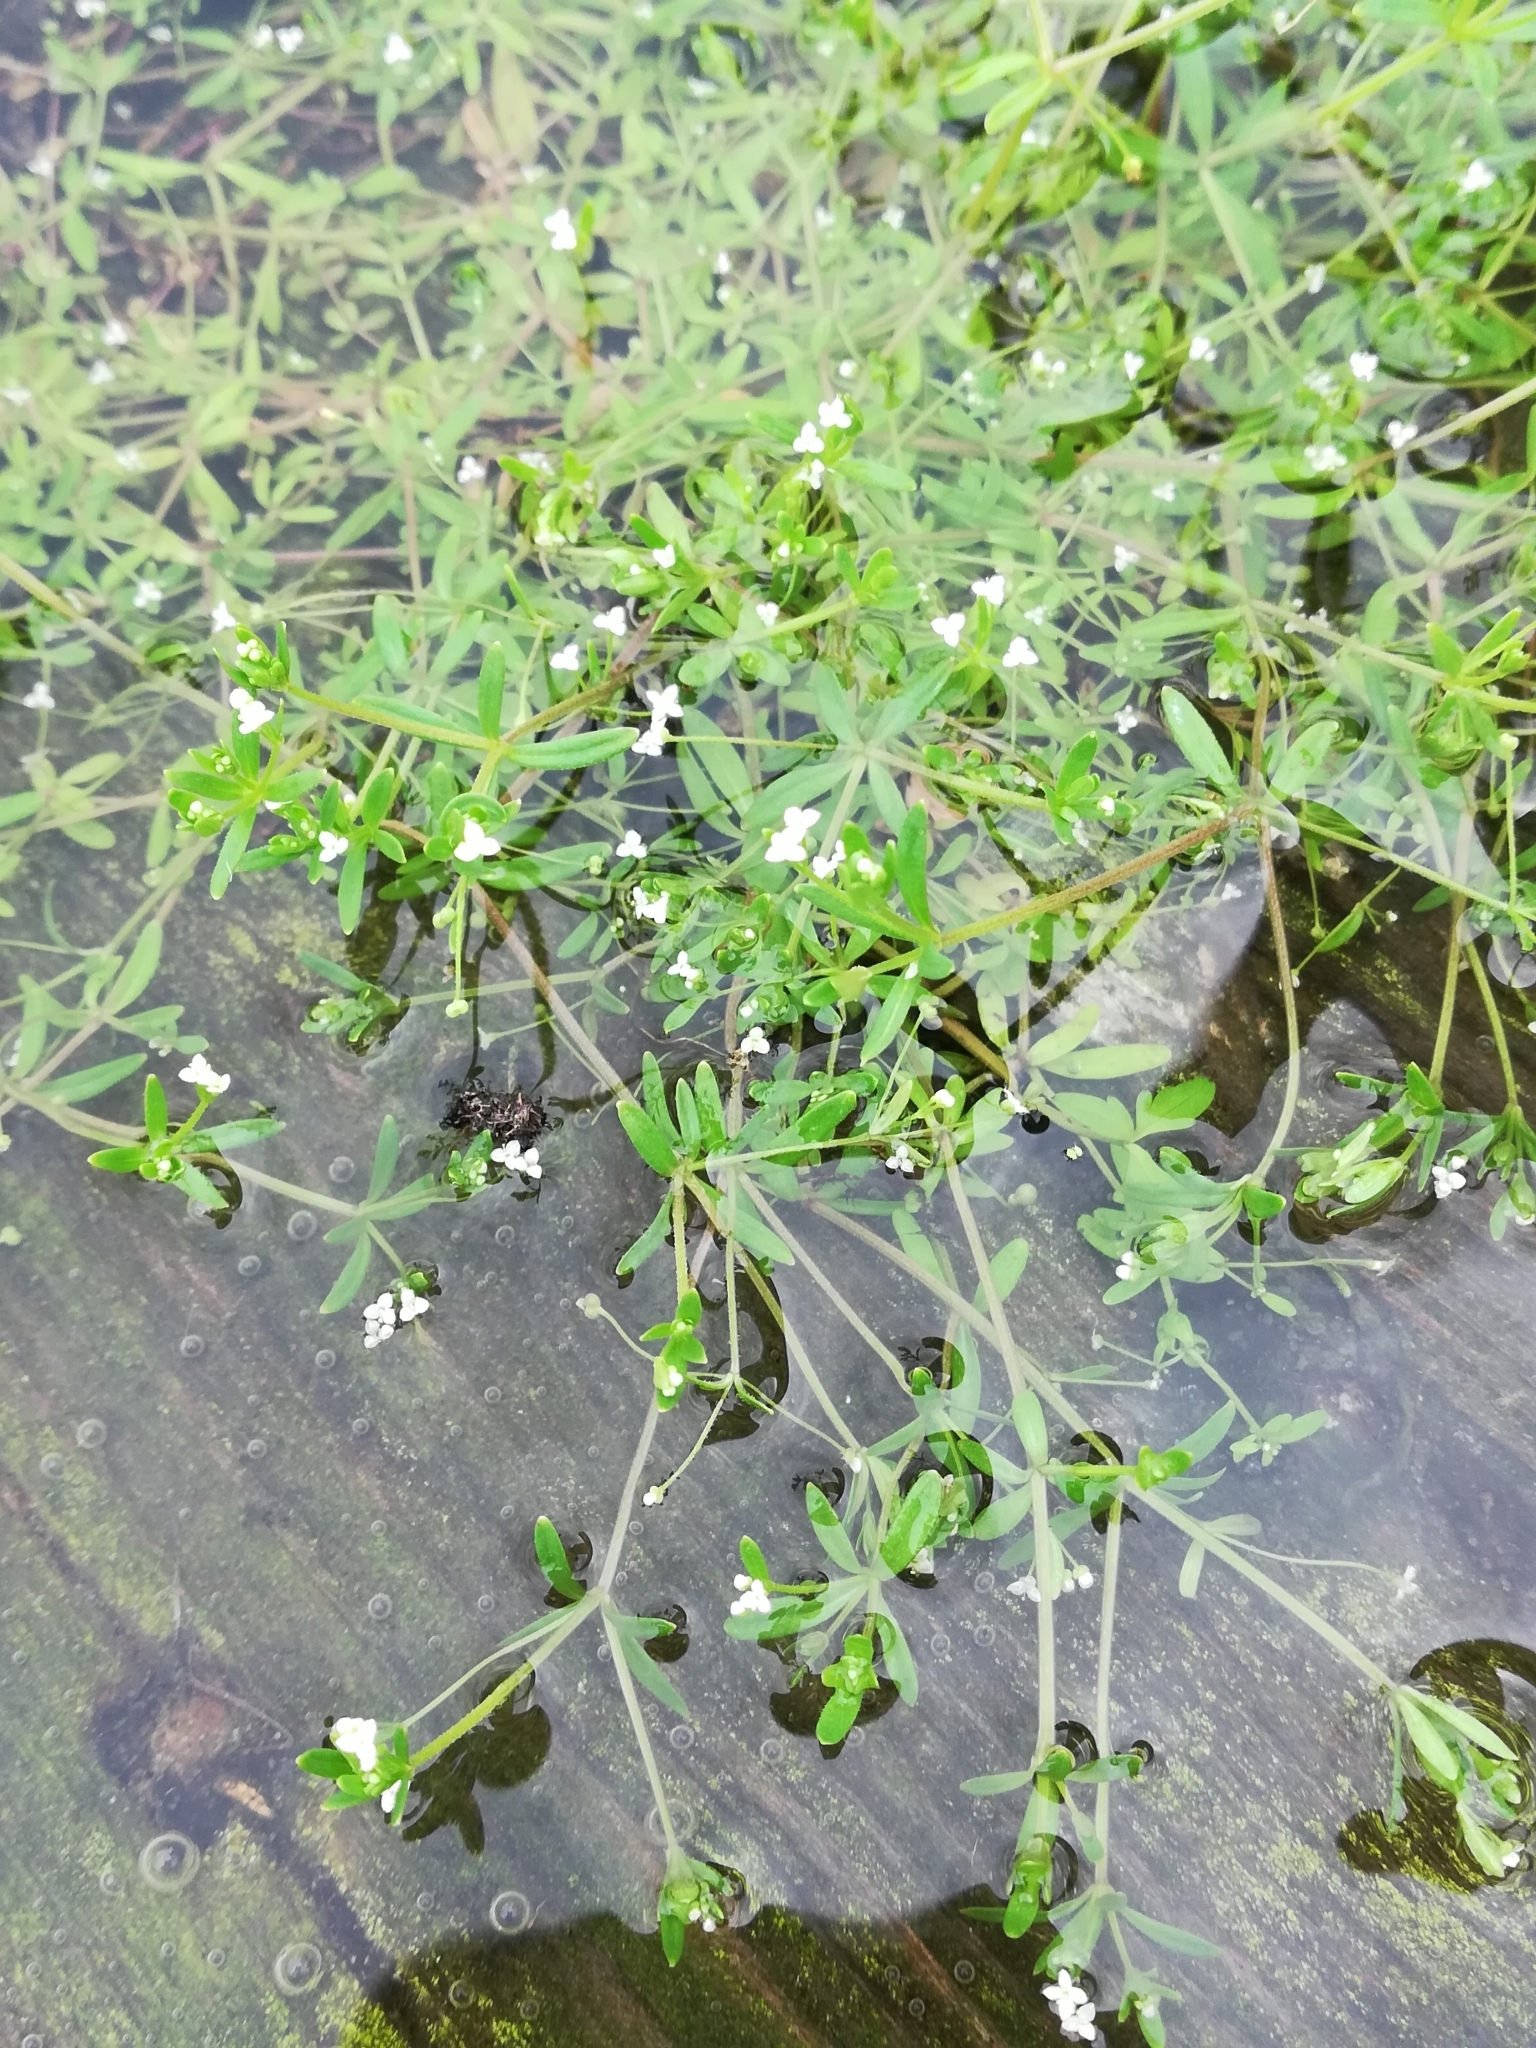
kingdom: Plantae
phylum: Tracheophyta
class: Magnoliopsida
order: Gentianales
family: Rubiaceae
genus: Galium
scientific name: Galium trifidum
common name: Small bedstraw
